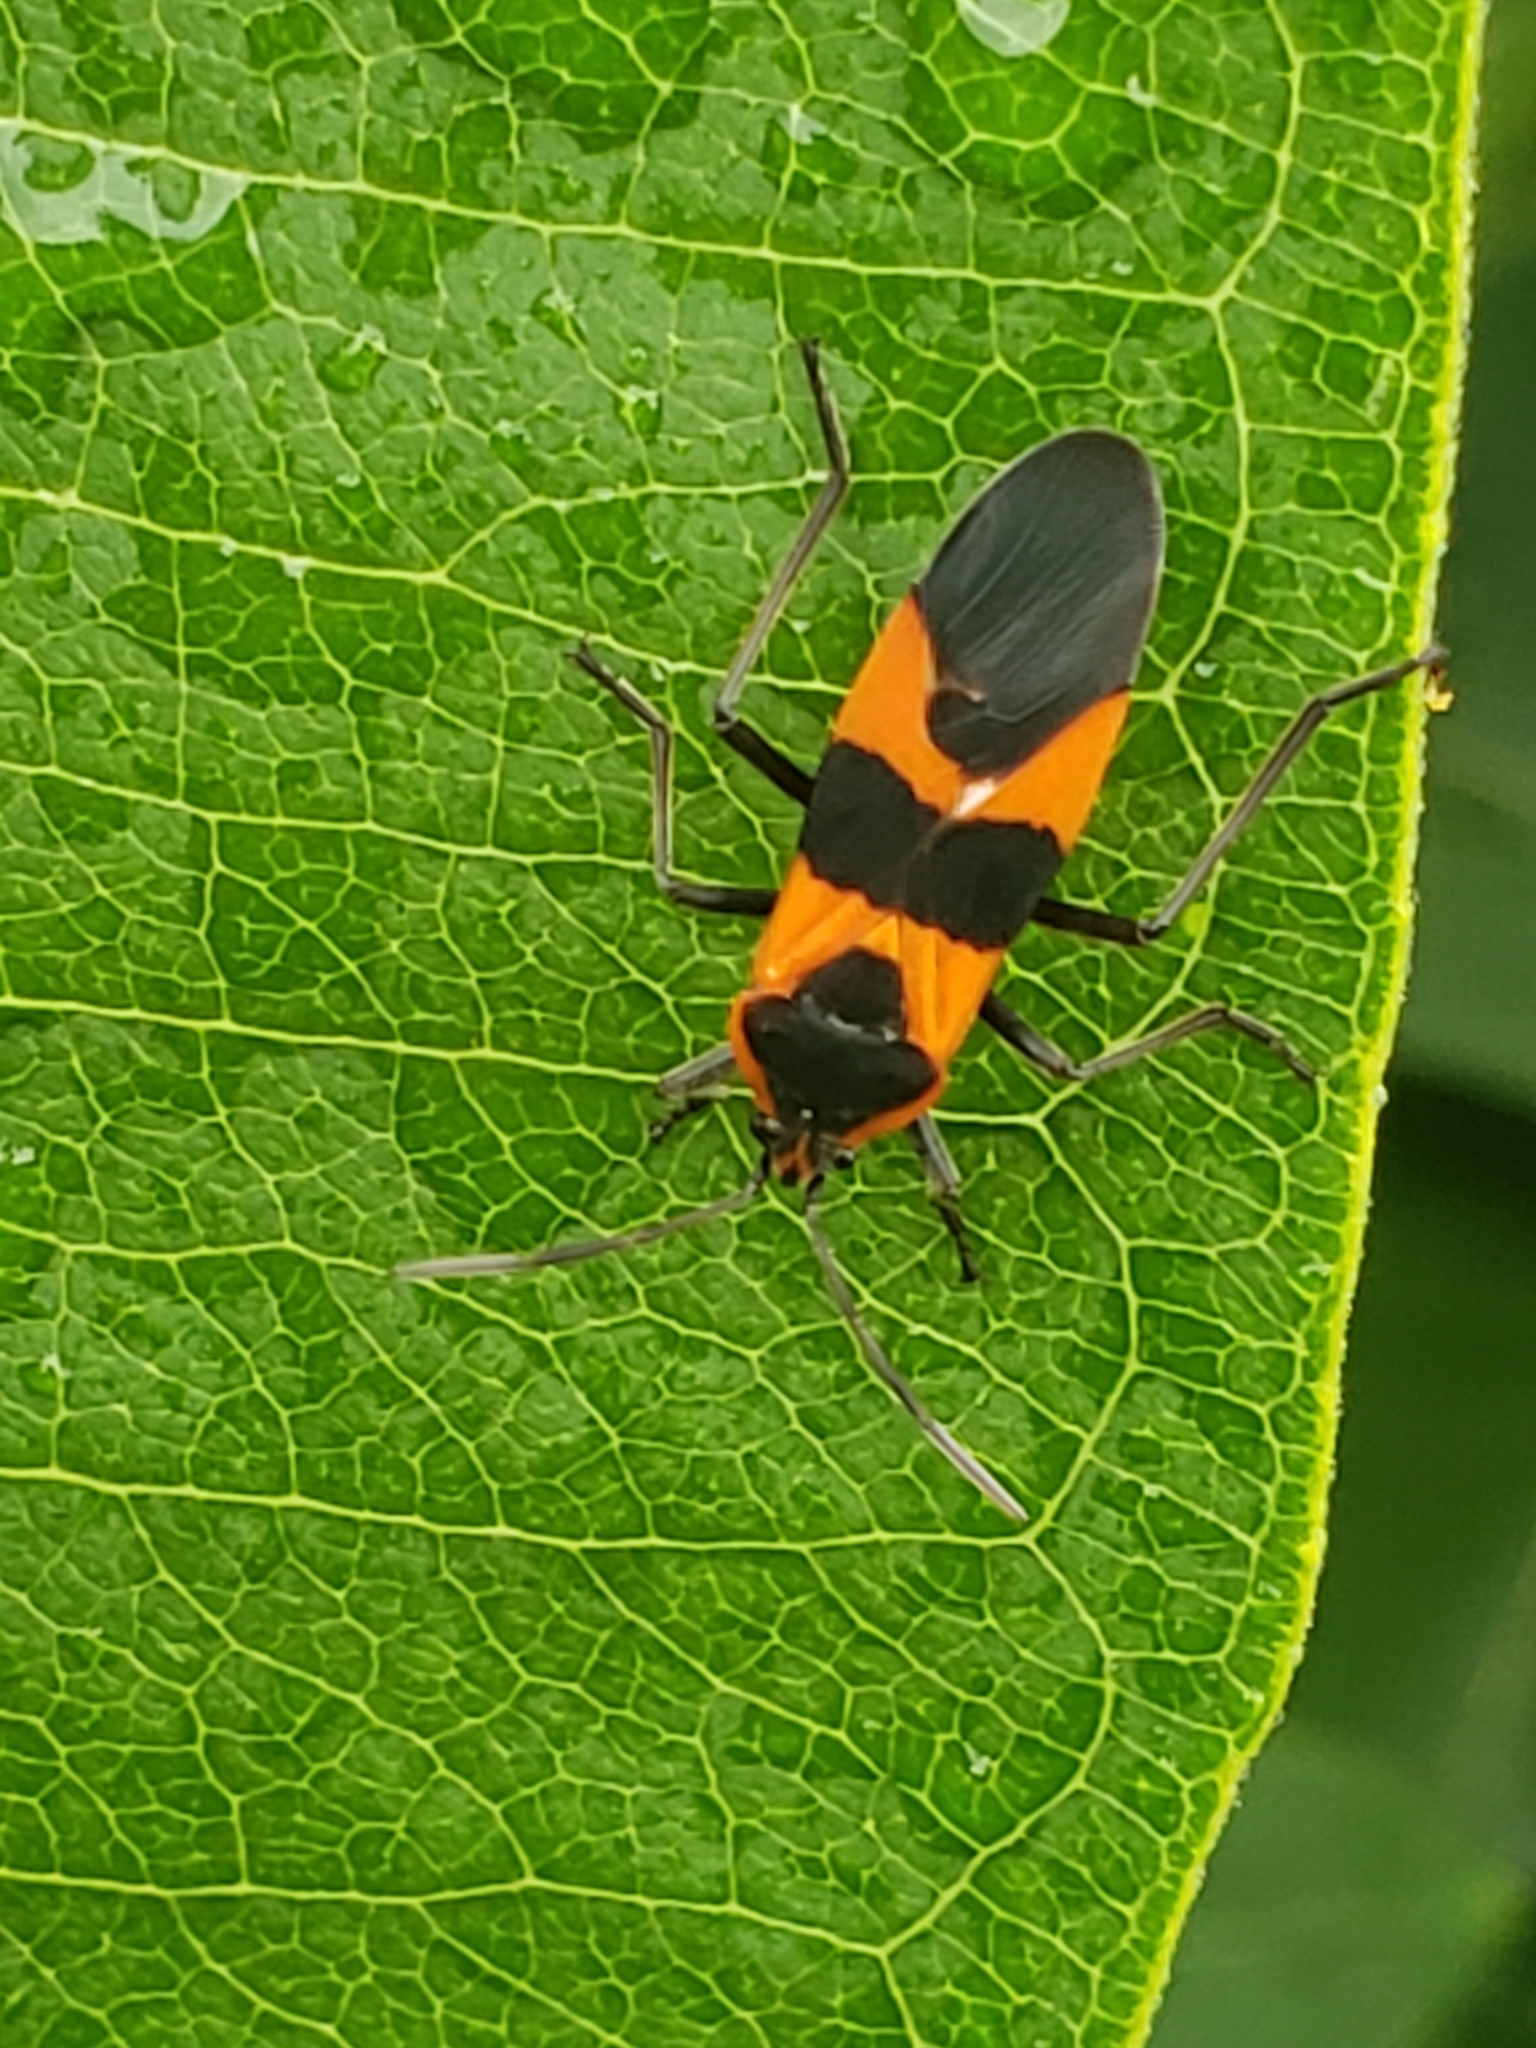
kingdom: Animalia
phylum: Arthropoda
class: Insecta
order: Hemiptera
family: Lygaeidae
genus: Oncopeltus
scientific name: Oncopeltus fasciatus
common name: Large milkweed bug
